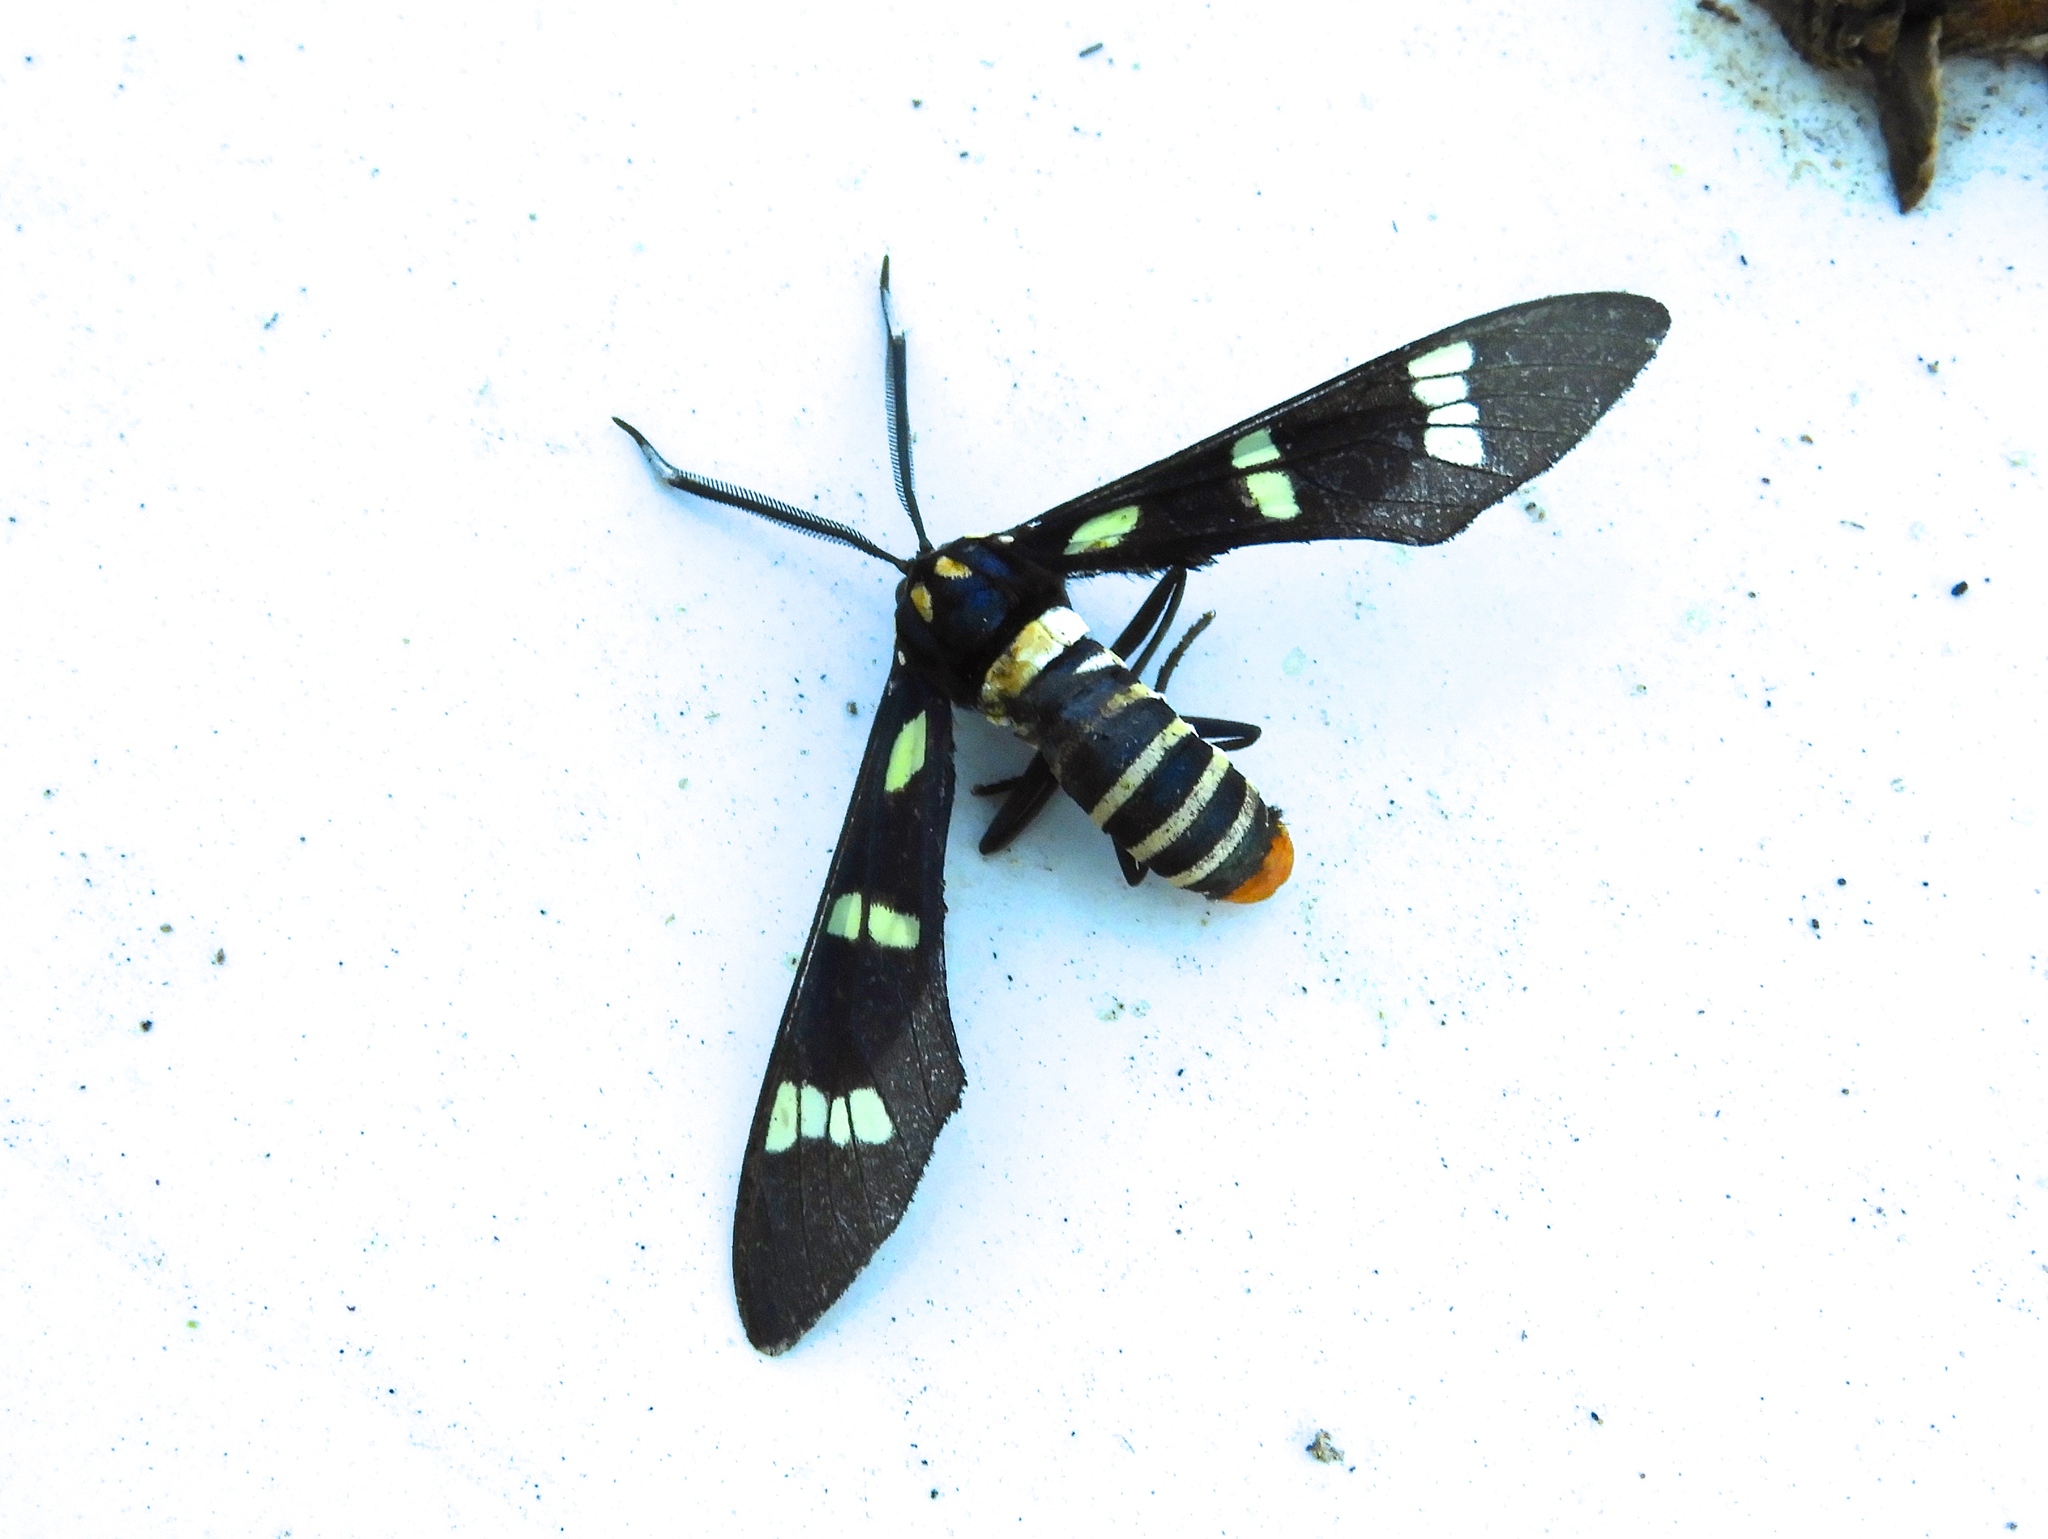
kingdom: Animalia
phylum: Arthropoda
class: Insecta
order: Lepidoptera
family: Erebidae
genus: Syntomeida
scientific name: Syntomeida melanthus
